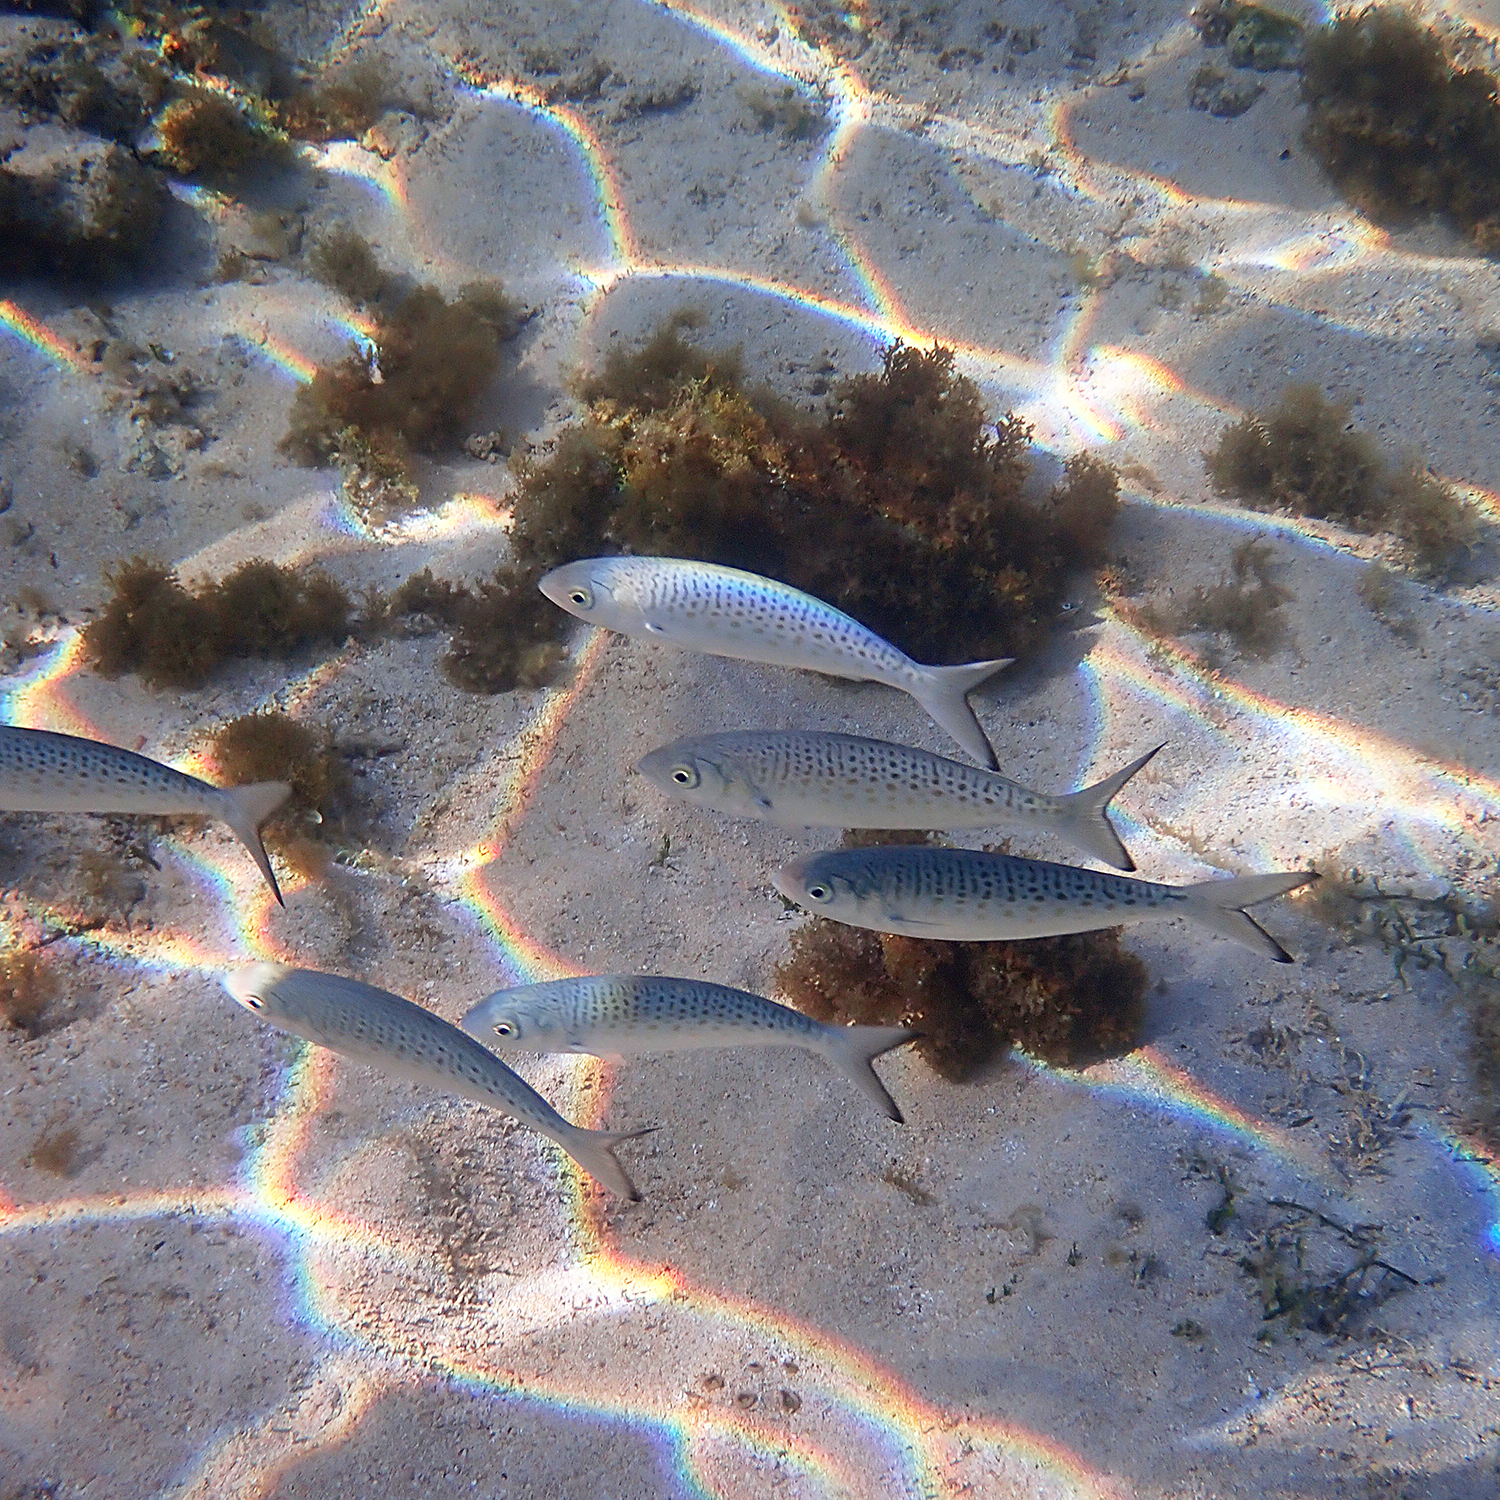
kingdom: Animalia
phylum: Chordata
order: Perciformes
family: Arripidae
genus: Arripis
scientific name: Arripis xylabion
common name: Giant kahawai
